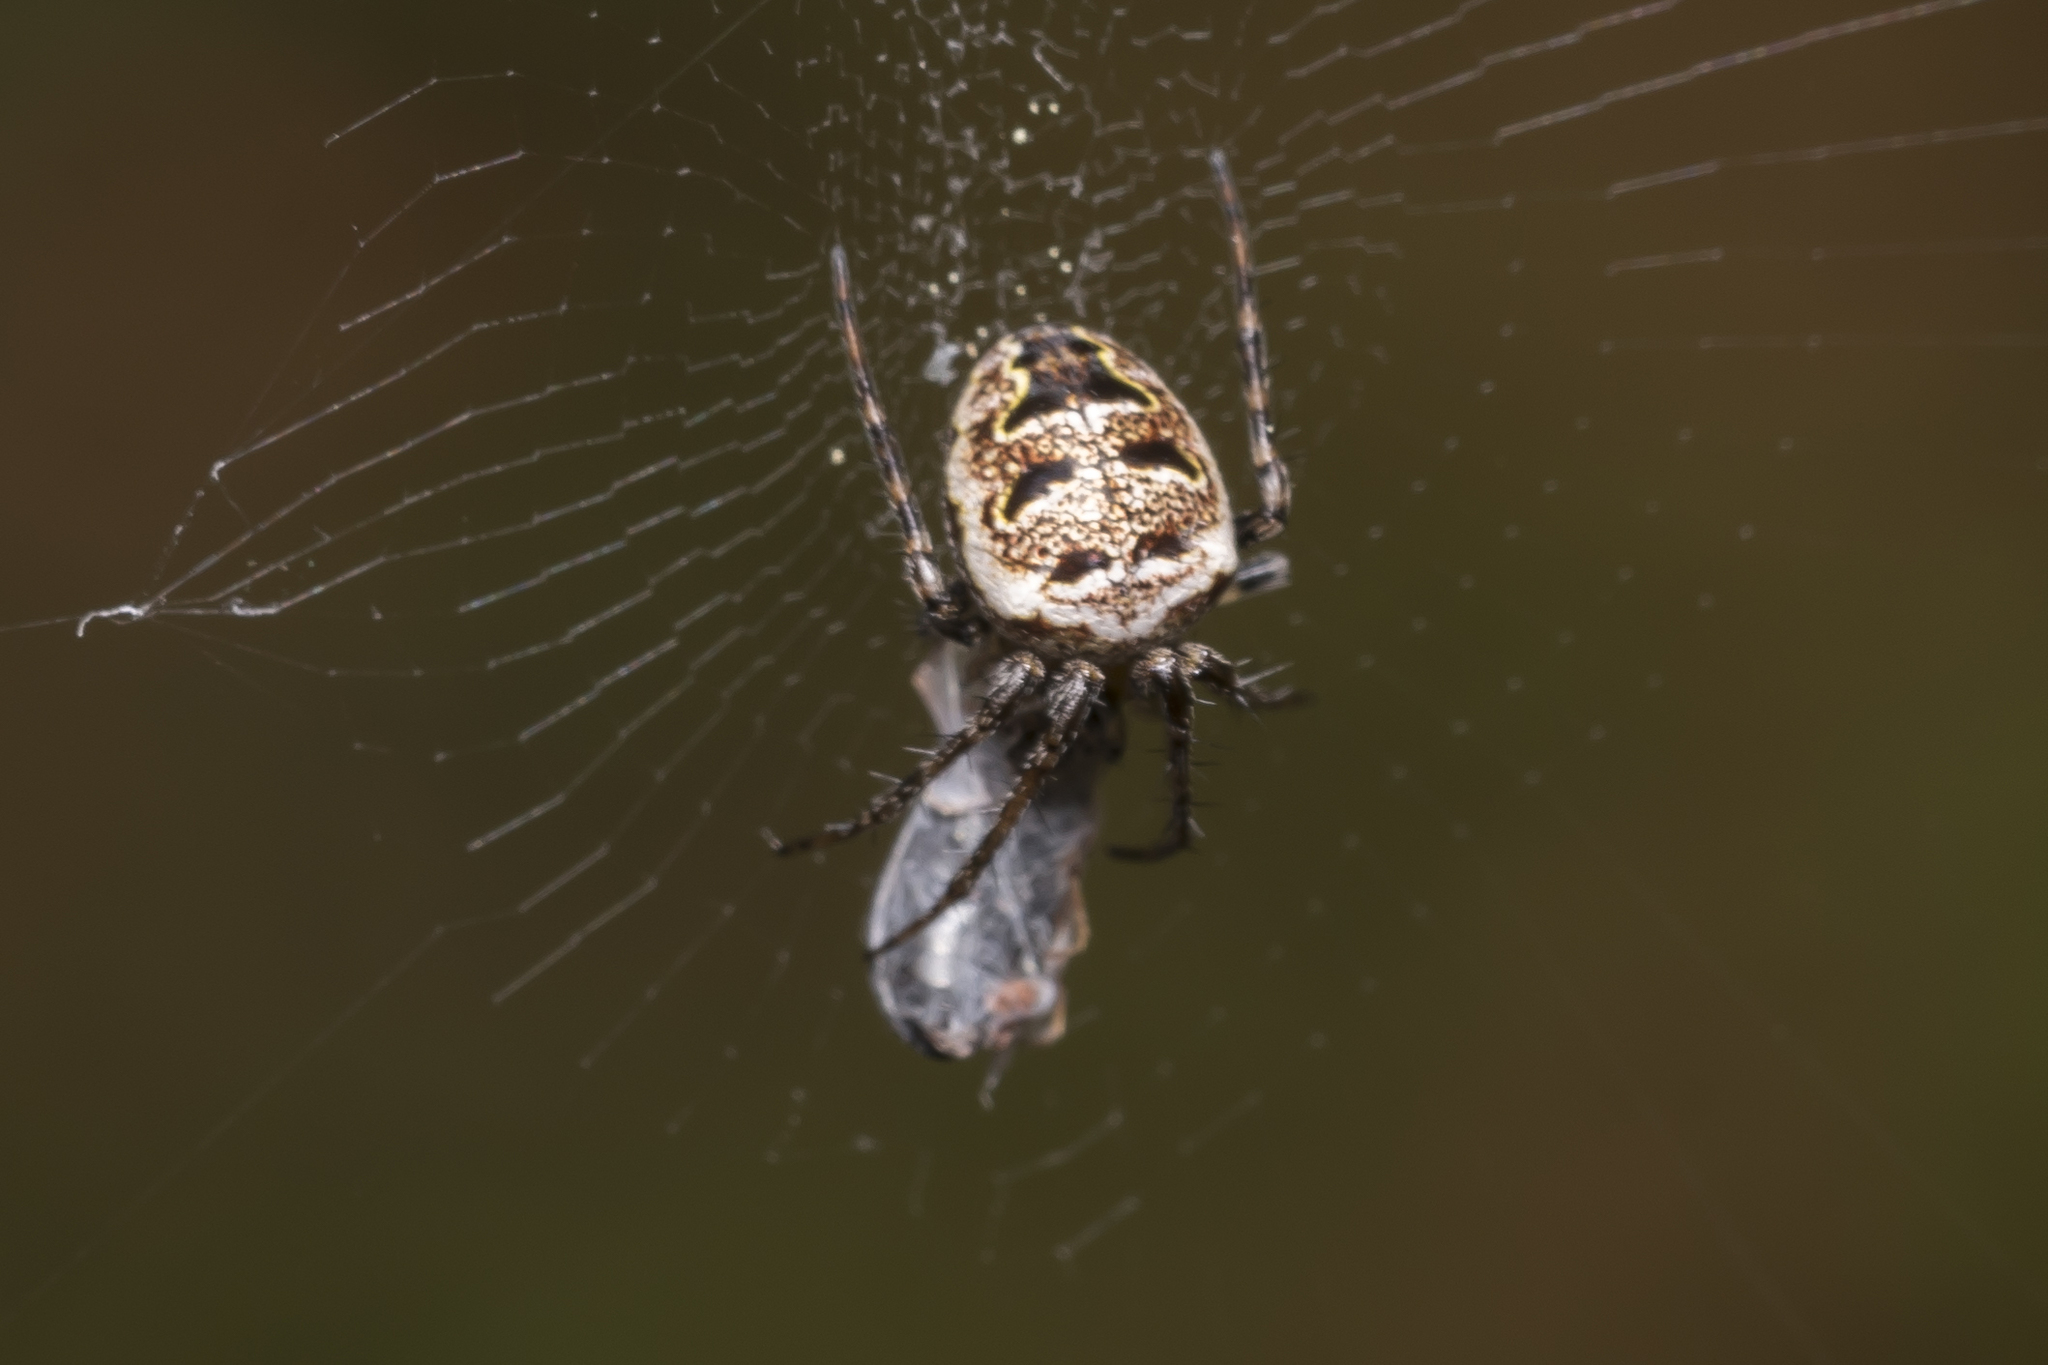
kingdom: Animalia
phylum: Arthropoda
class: Arachnida
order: Araneae
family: Araneidae
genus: Zilla
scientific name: Zilla diodia
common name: Zilla diodia
